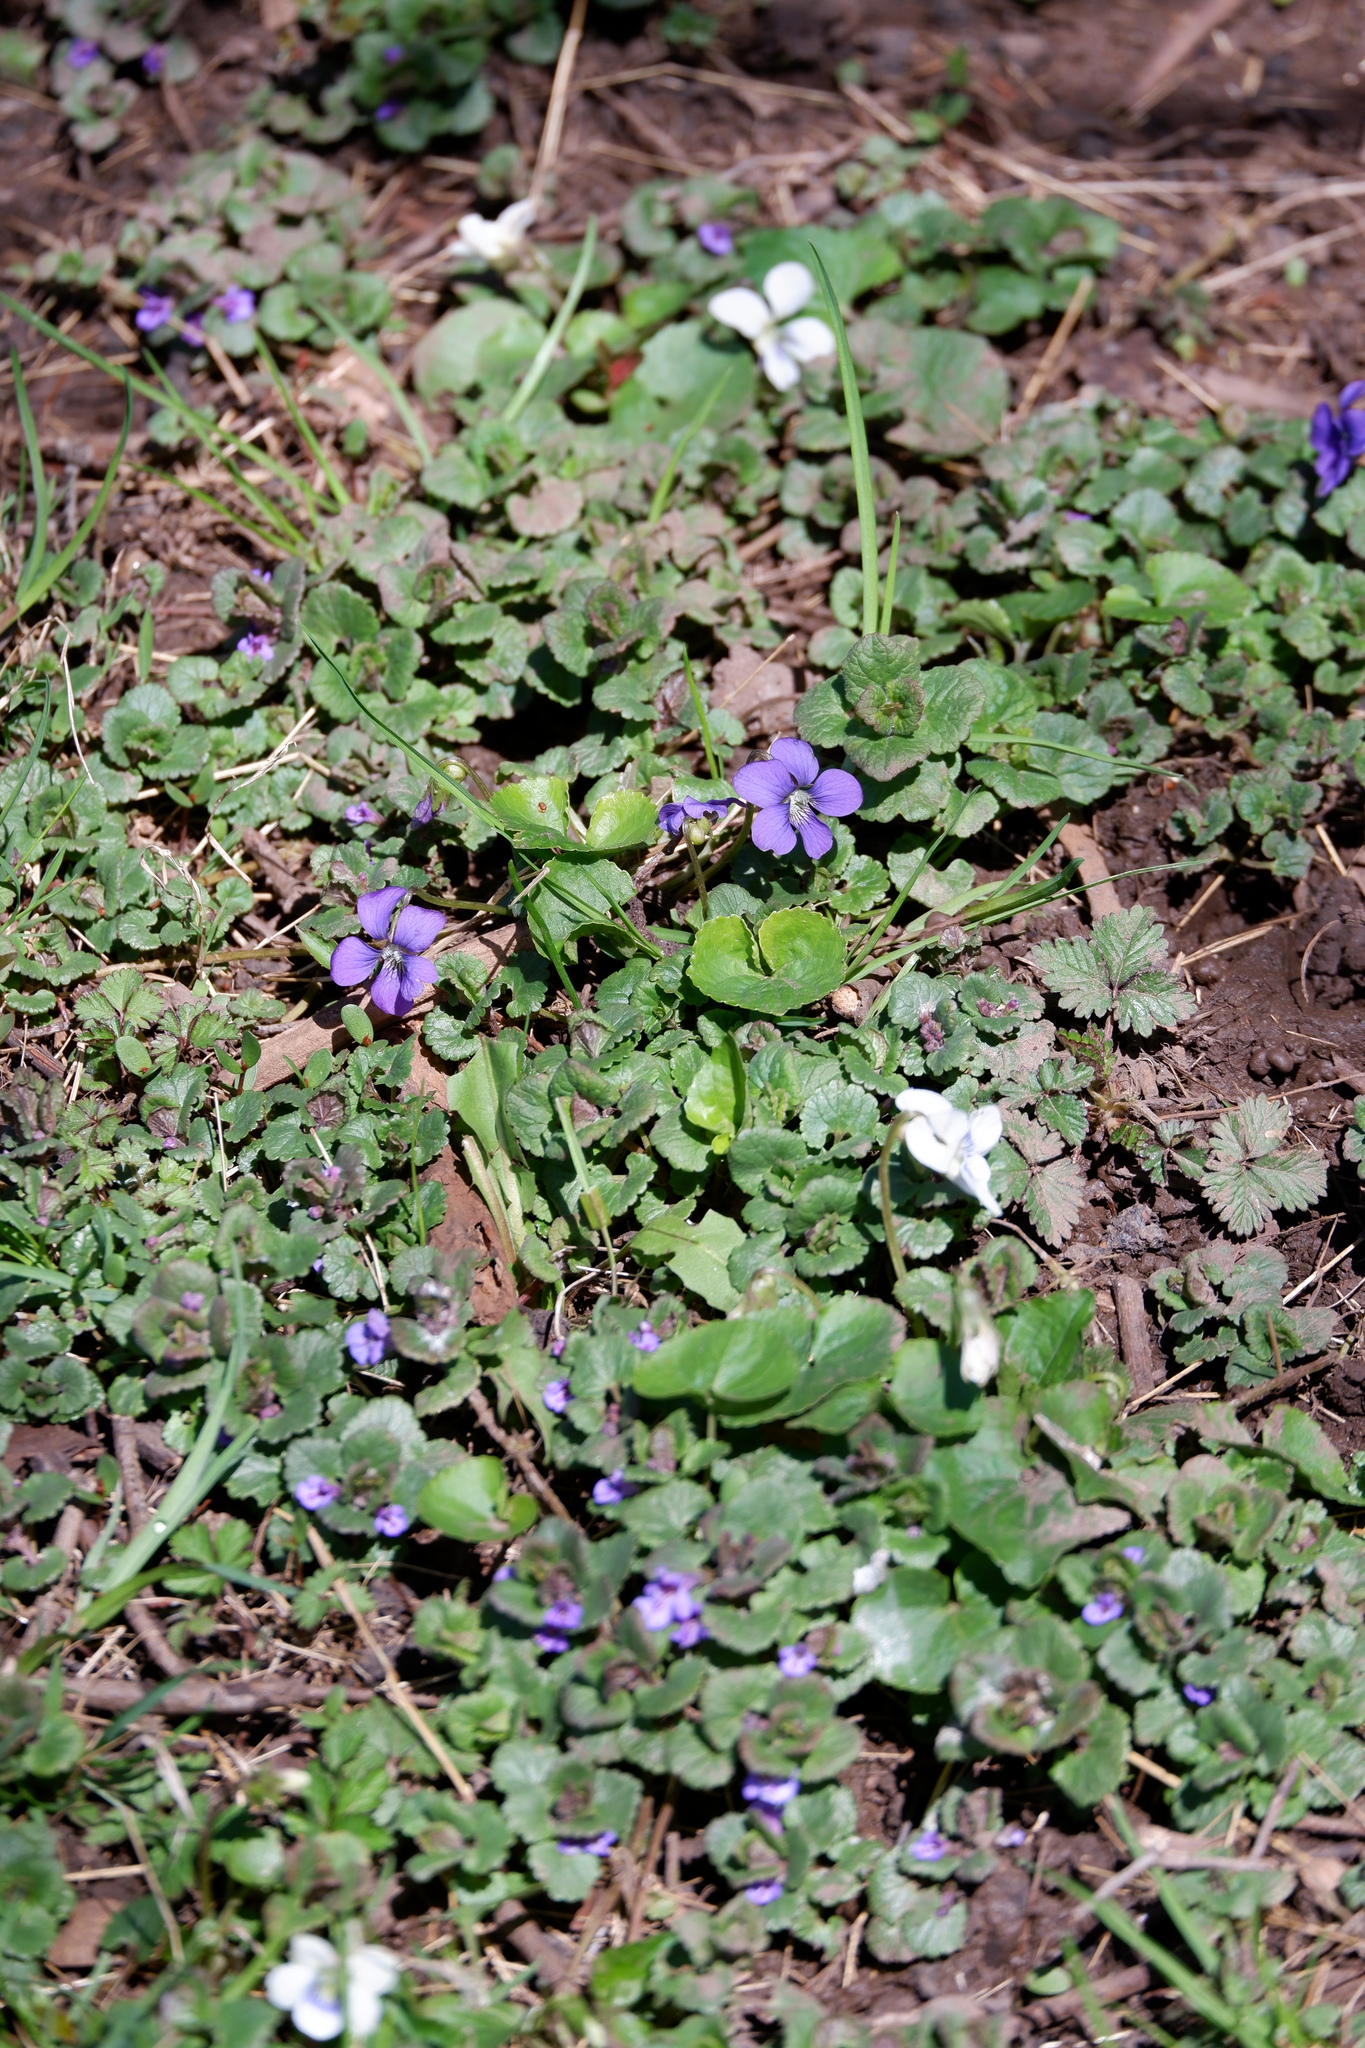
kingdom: Plantae
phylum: Tracheophyta
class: Magnoliopsida
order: Malpighiales
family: Violaceae
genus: Viola
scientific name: Viola communis
